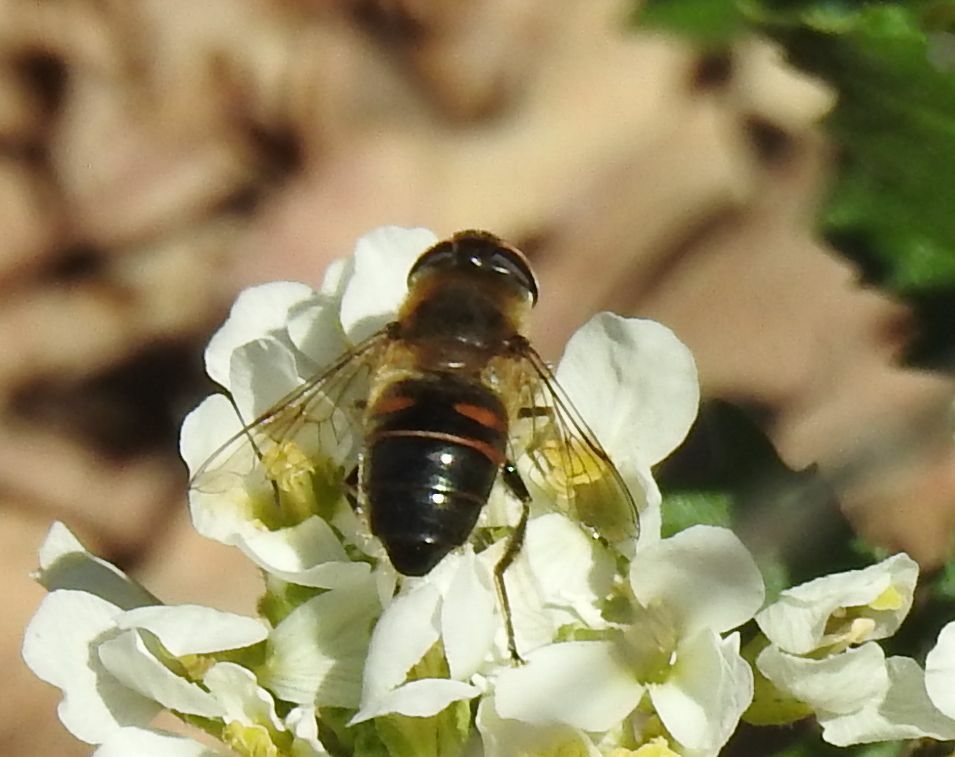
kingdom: Animalia
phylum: Arthropoda
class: Insecta
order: Diptera
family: Syrphidae
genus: Eristalis
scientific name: Eristalis tenax
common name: Drone fly
